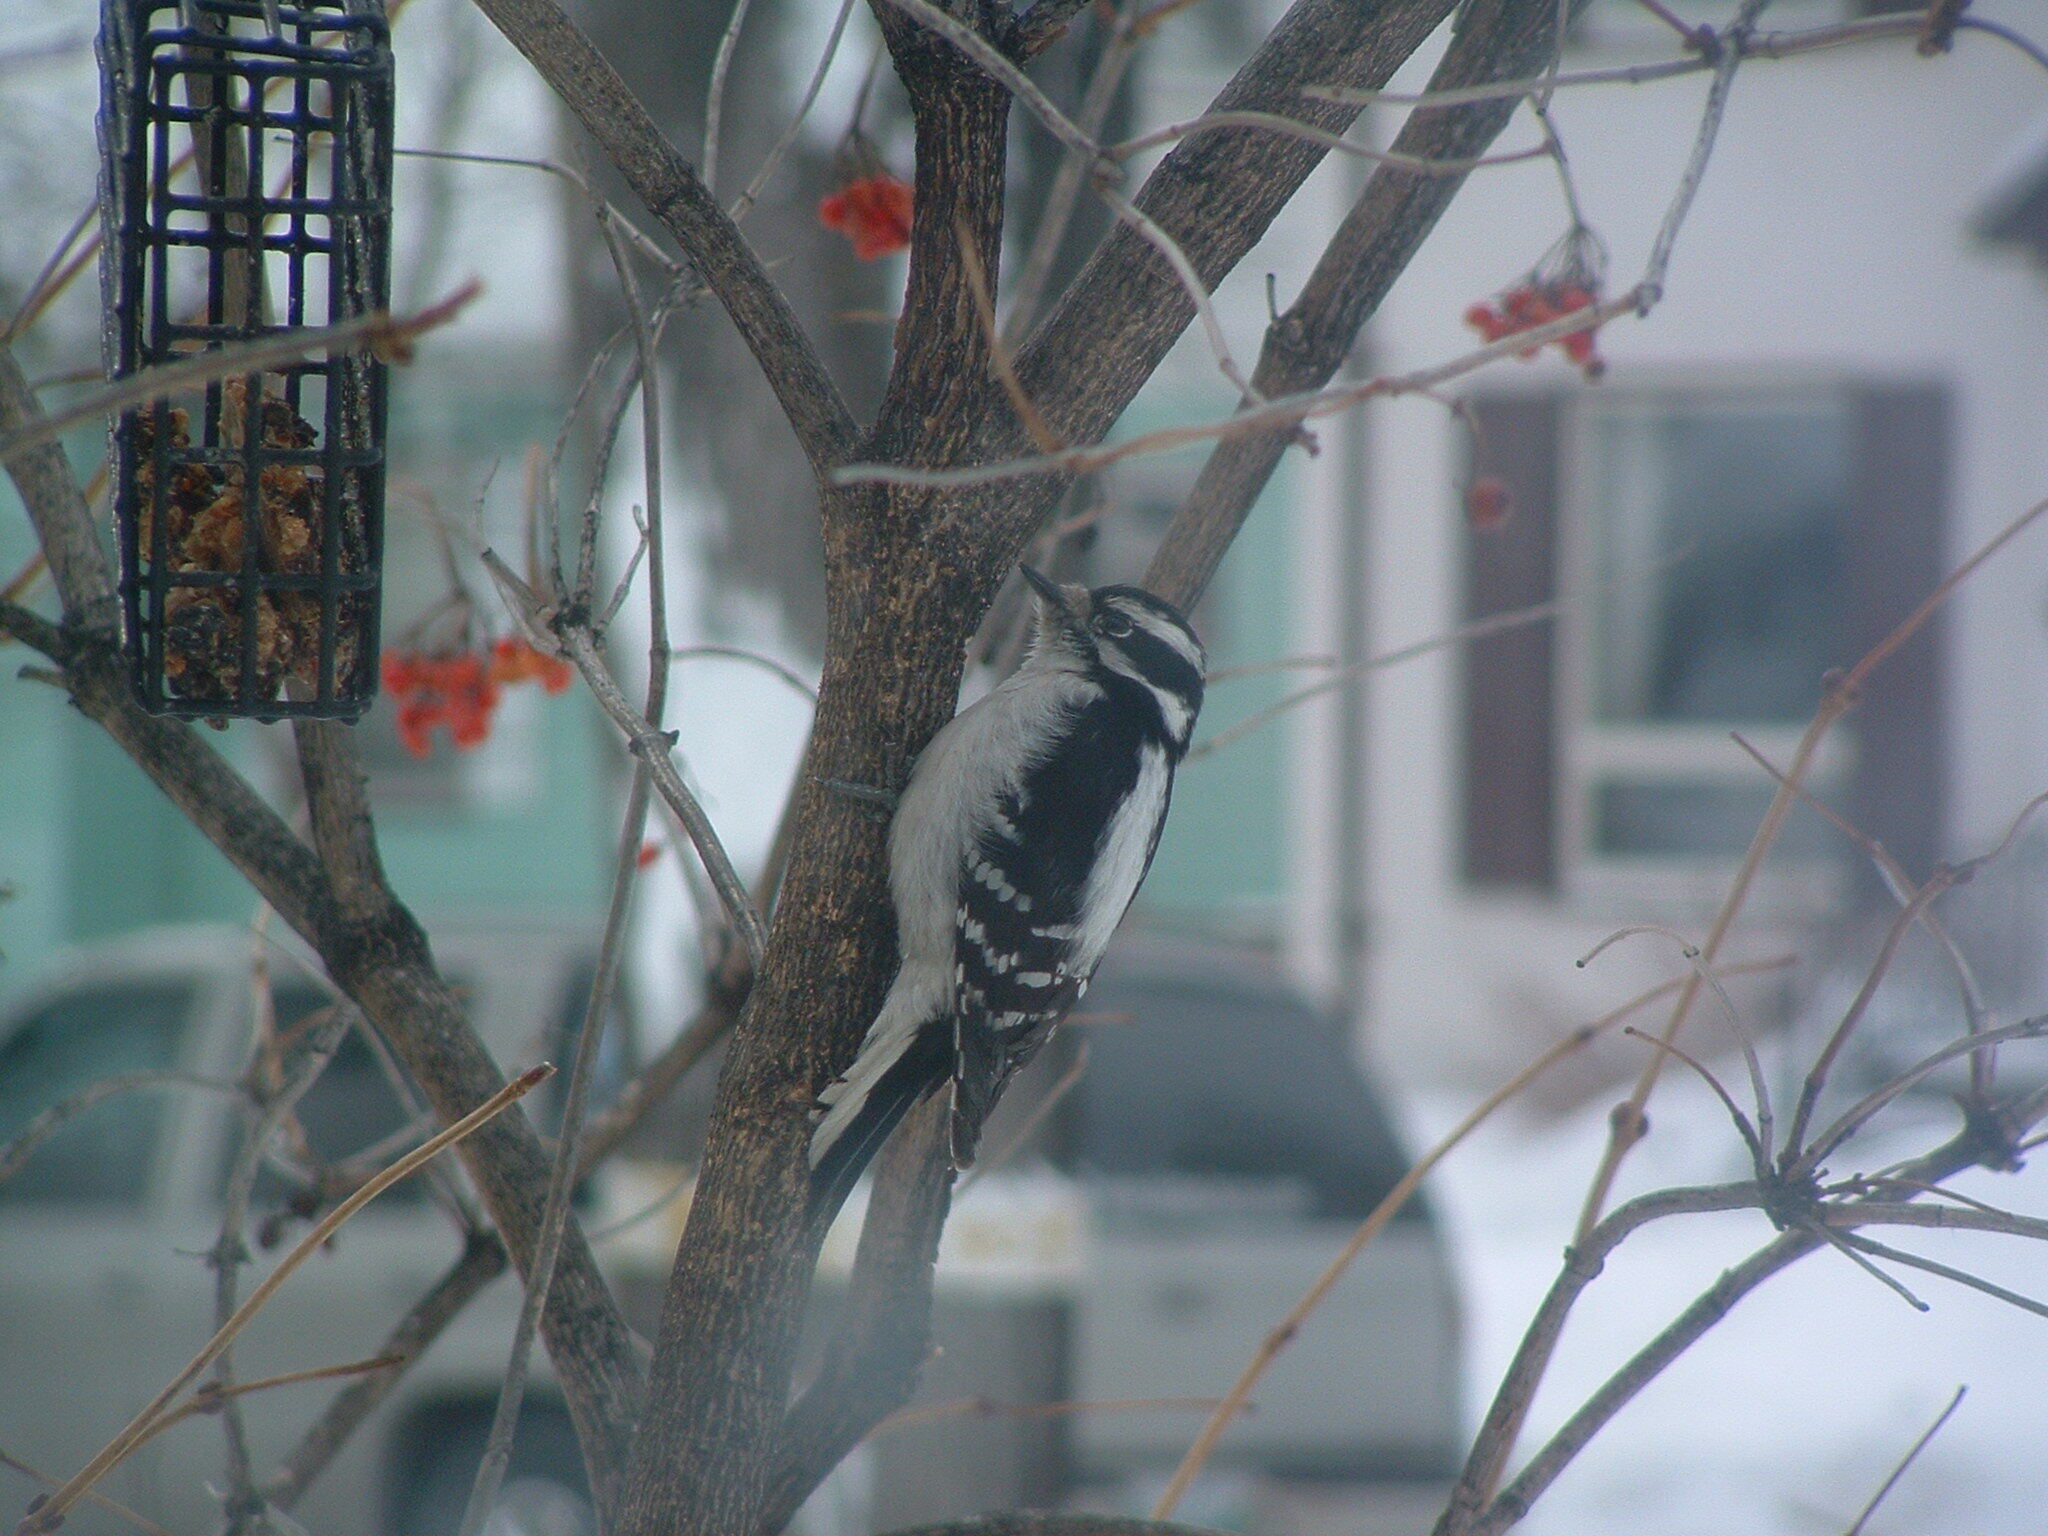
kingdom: Animalia
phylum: Chordata
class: Aves
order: Piciformes
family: Picidae
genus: Dryobates
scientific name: Dryobates pubescens
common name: Downy woodpecker
